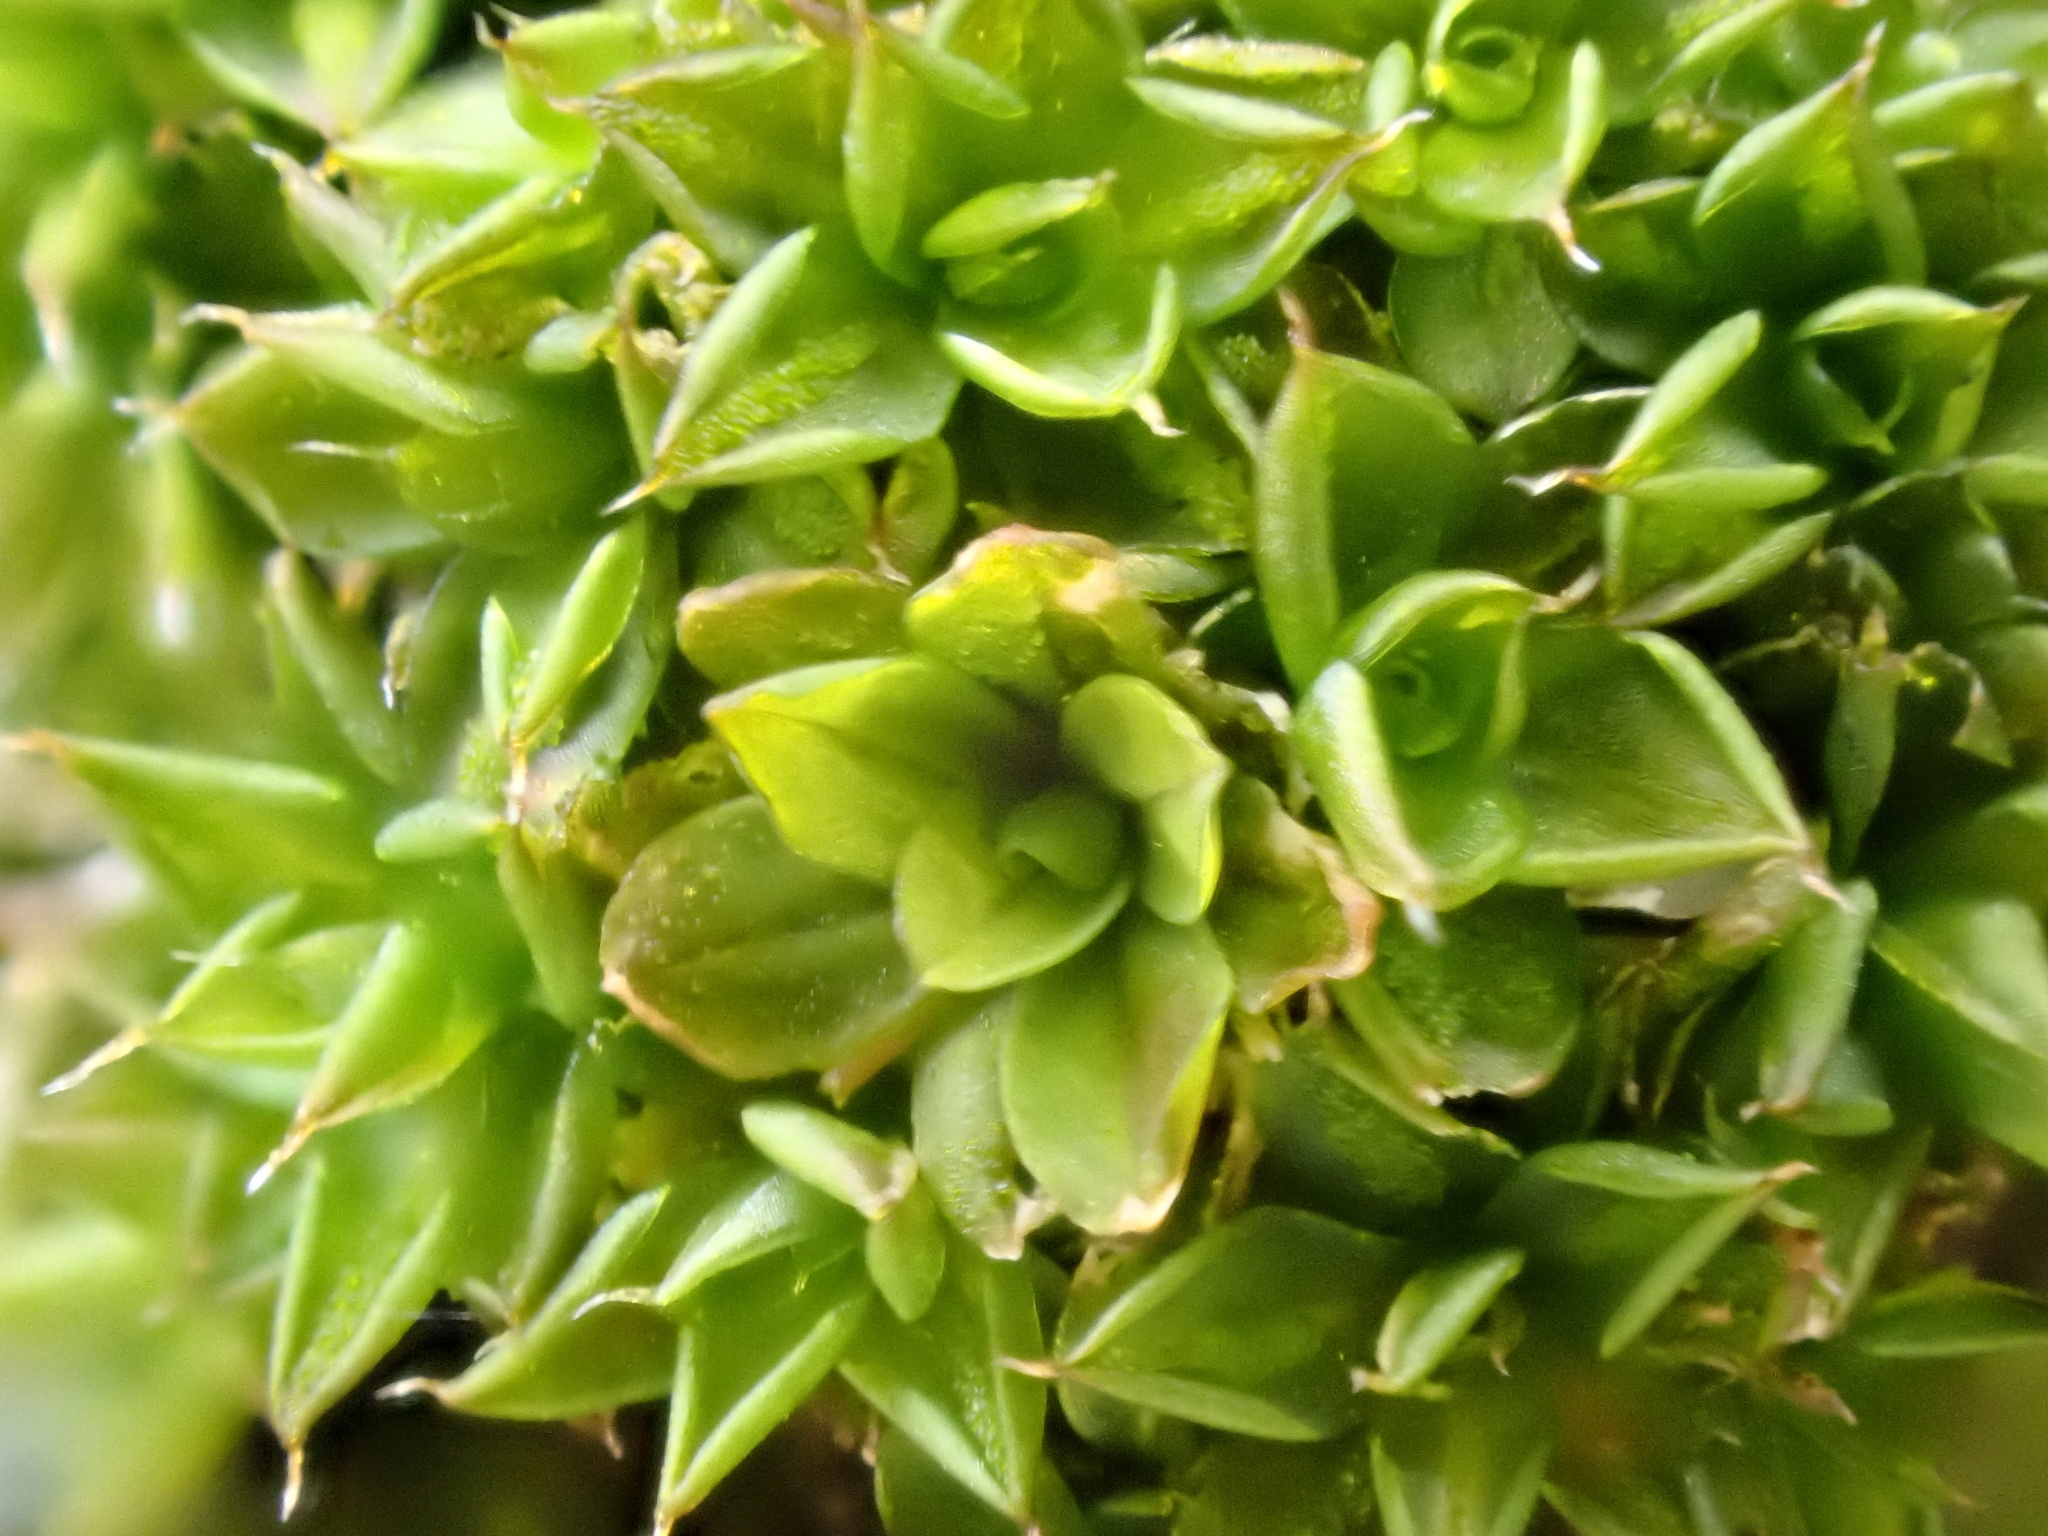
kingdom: Plantae
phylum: Bryophyta
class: Bryopsida
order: Pottiales
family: Pottiaceae
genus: Syntrichia
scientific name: Syntrichia papillosa
